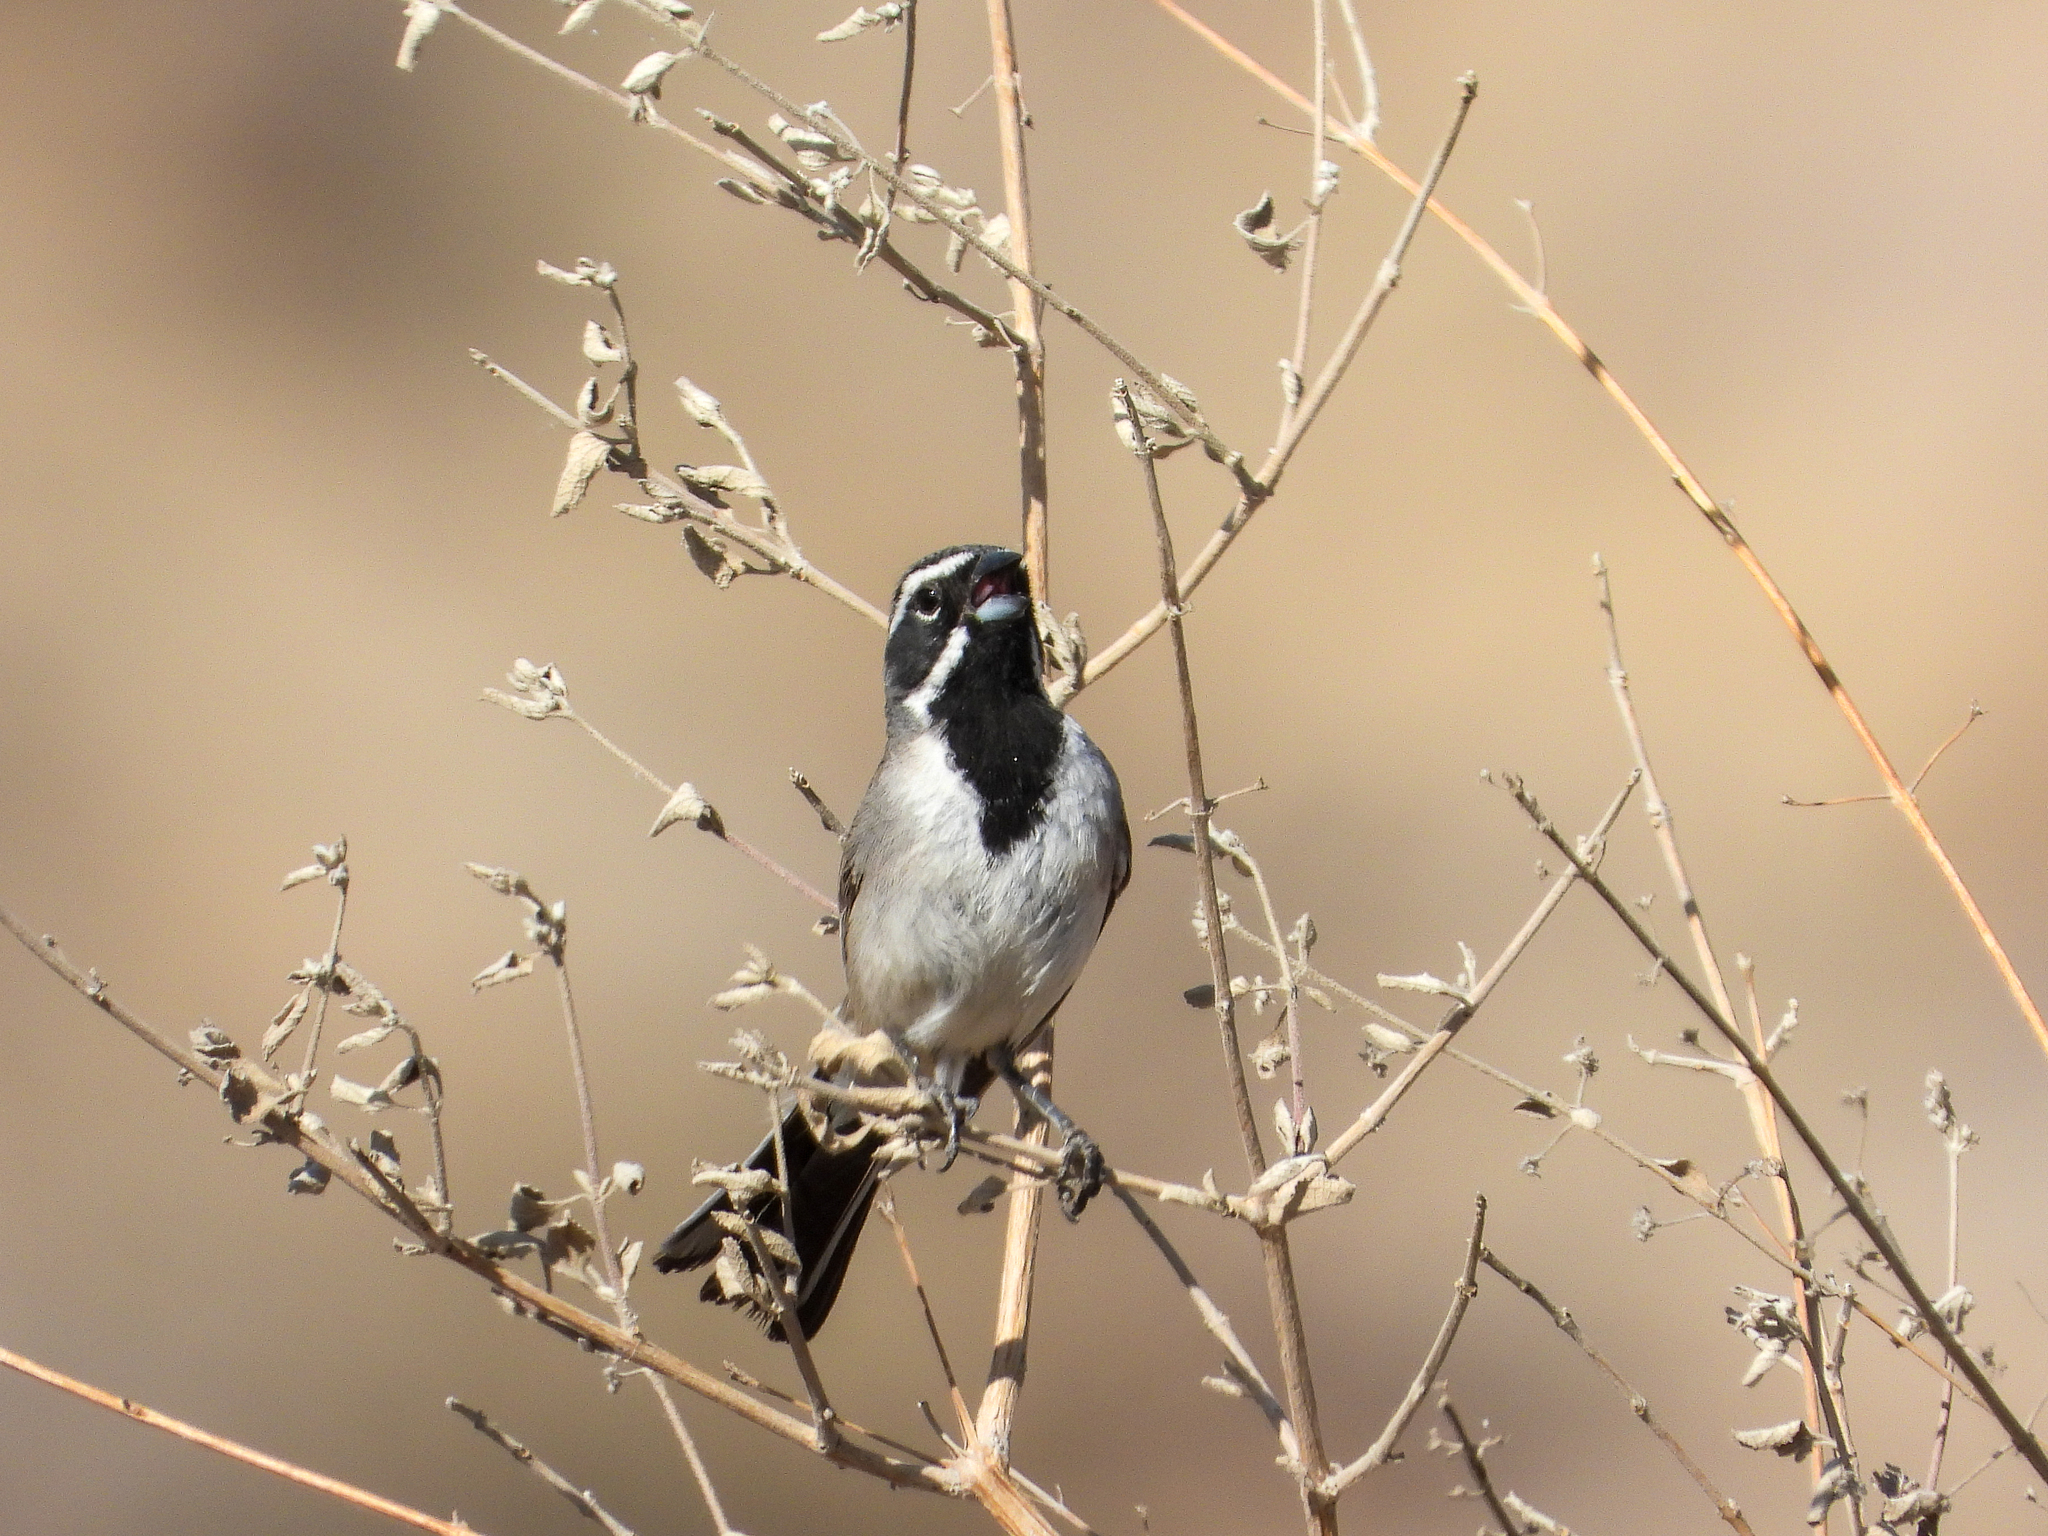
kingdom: Animalia
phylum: Chordata
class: Aves
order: Passeriformes
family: Passerellidae
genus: Amphispiza
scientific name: Amphispiza bilineata
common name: Black-throated sparrow
